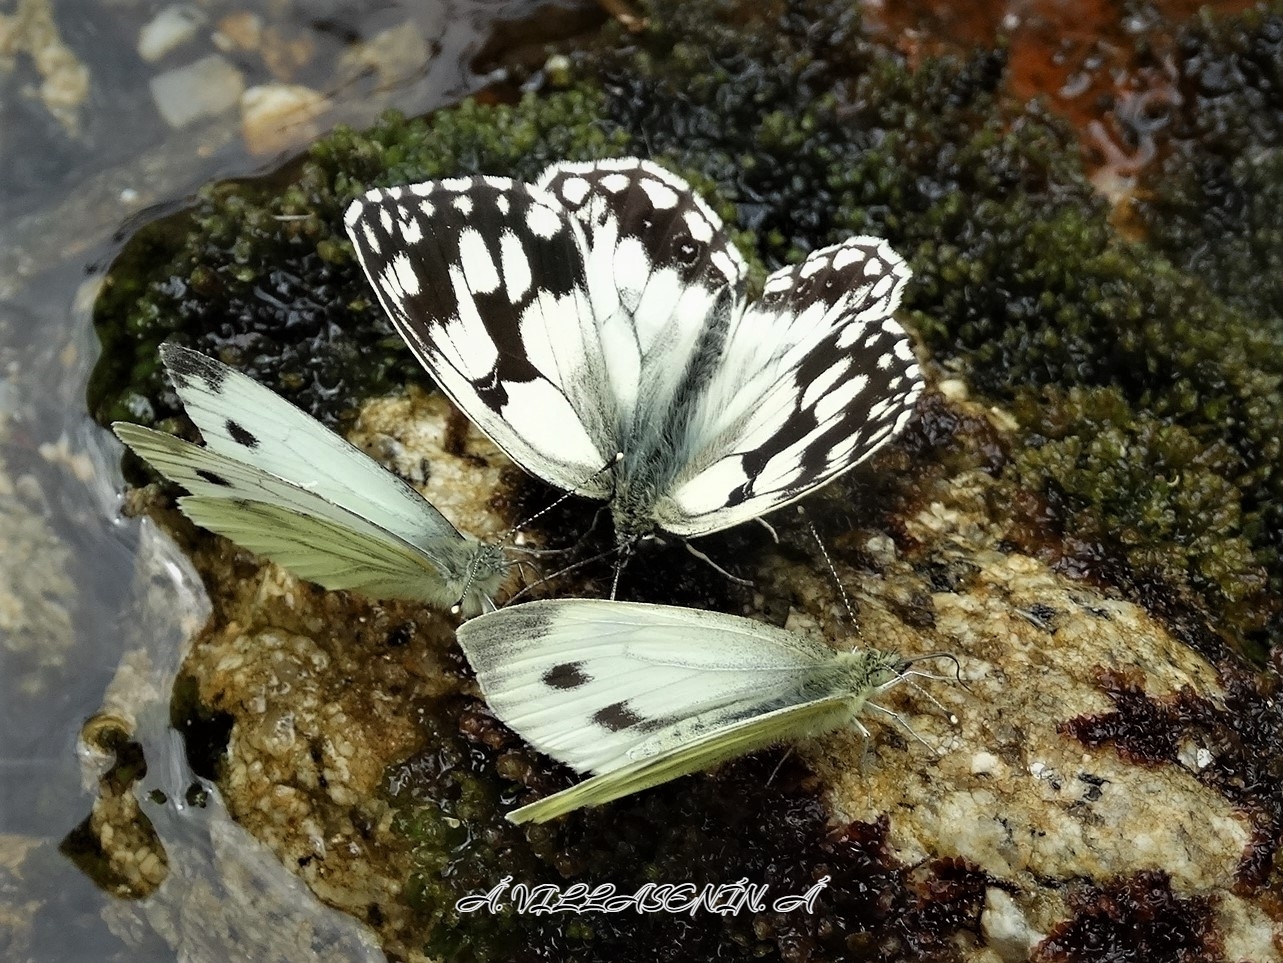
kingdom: Animalia
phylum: Arthropoda
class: Insecta
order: Lepidoptera
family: Nymphalidae
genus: Melanargia
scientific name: Melanargia lachesis
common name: Iberian marbled white
